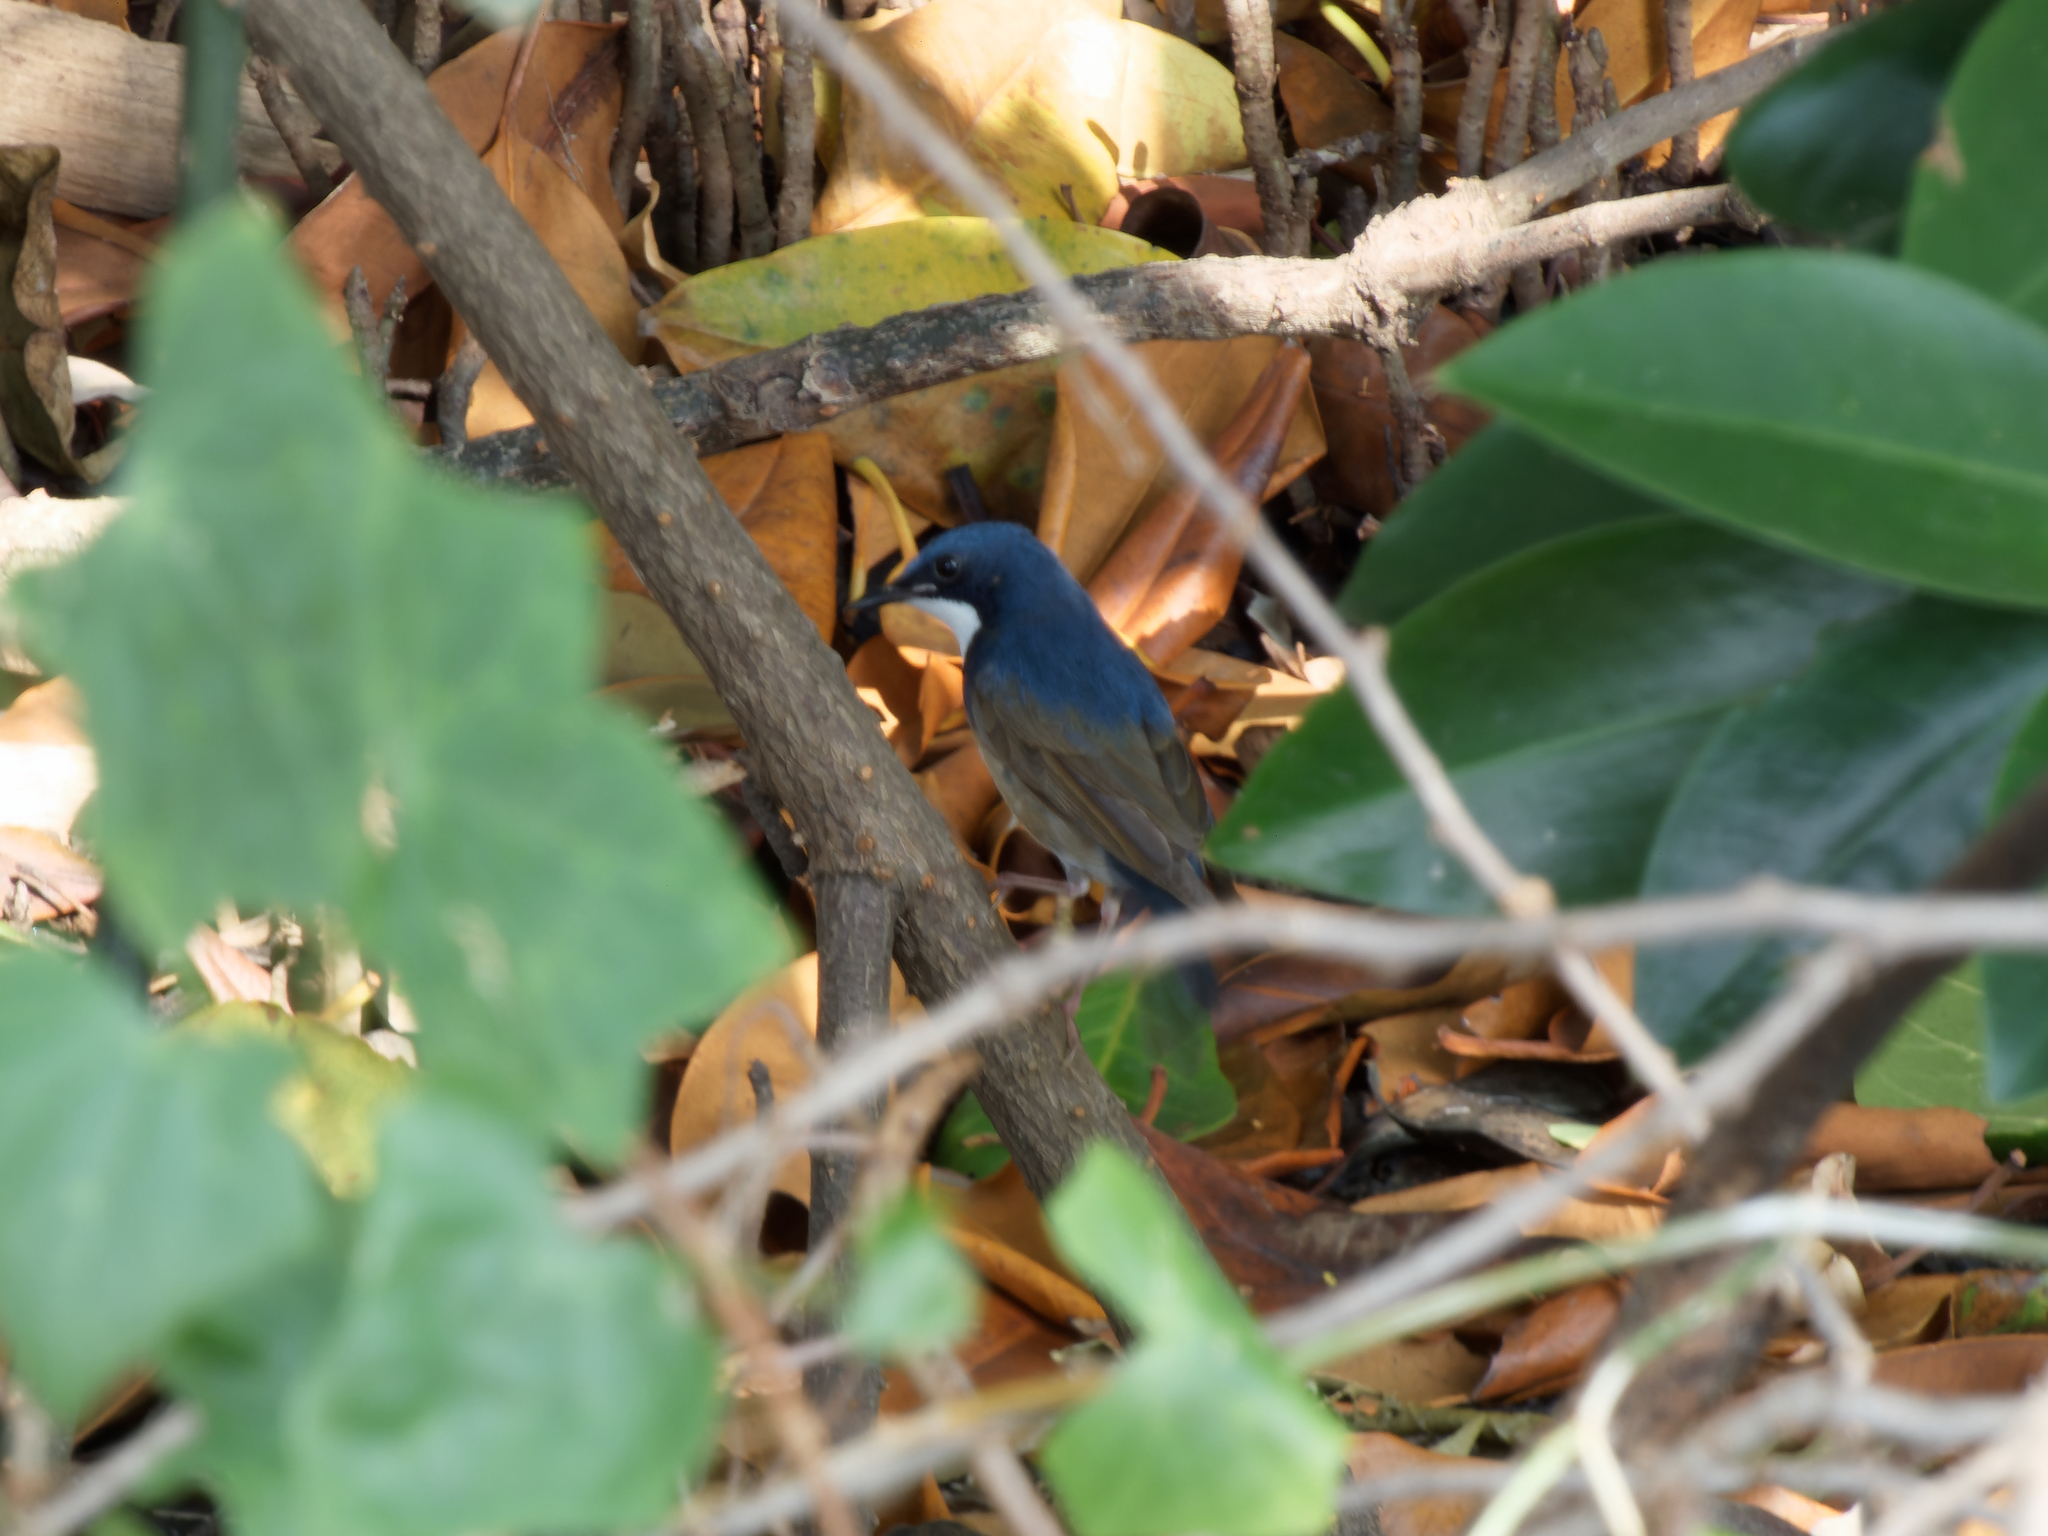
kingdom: Animalia
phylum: Chordata
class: Aves
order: Passeriformes
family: Muscicapidae
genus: Luscinia
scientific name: Luscinia cyane
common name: Siberian blue robin
